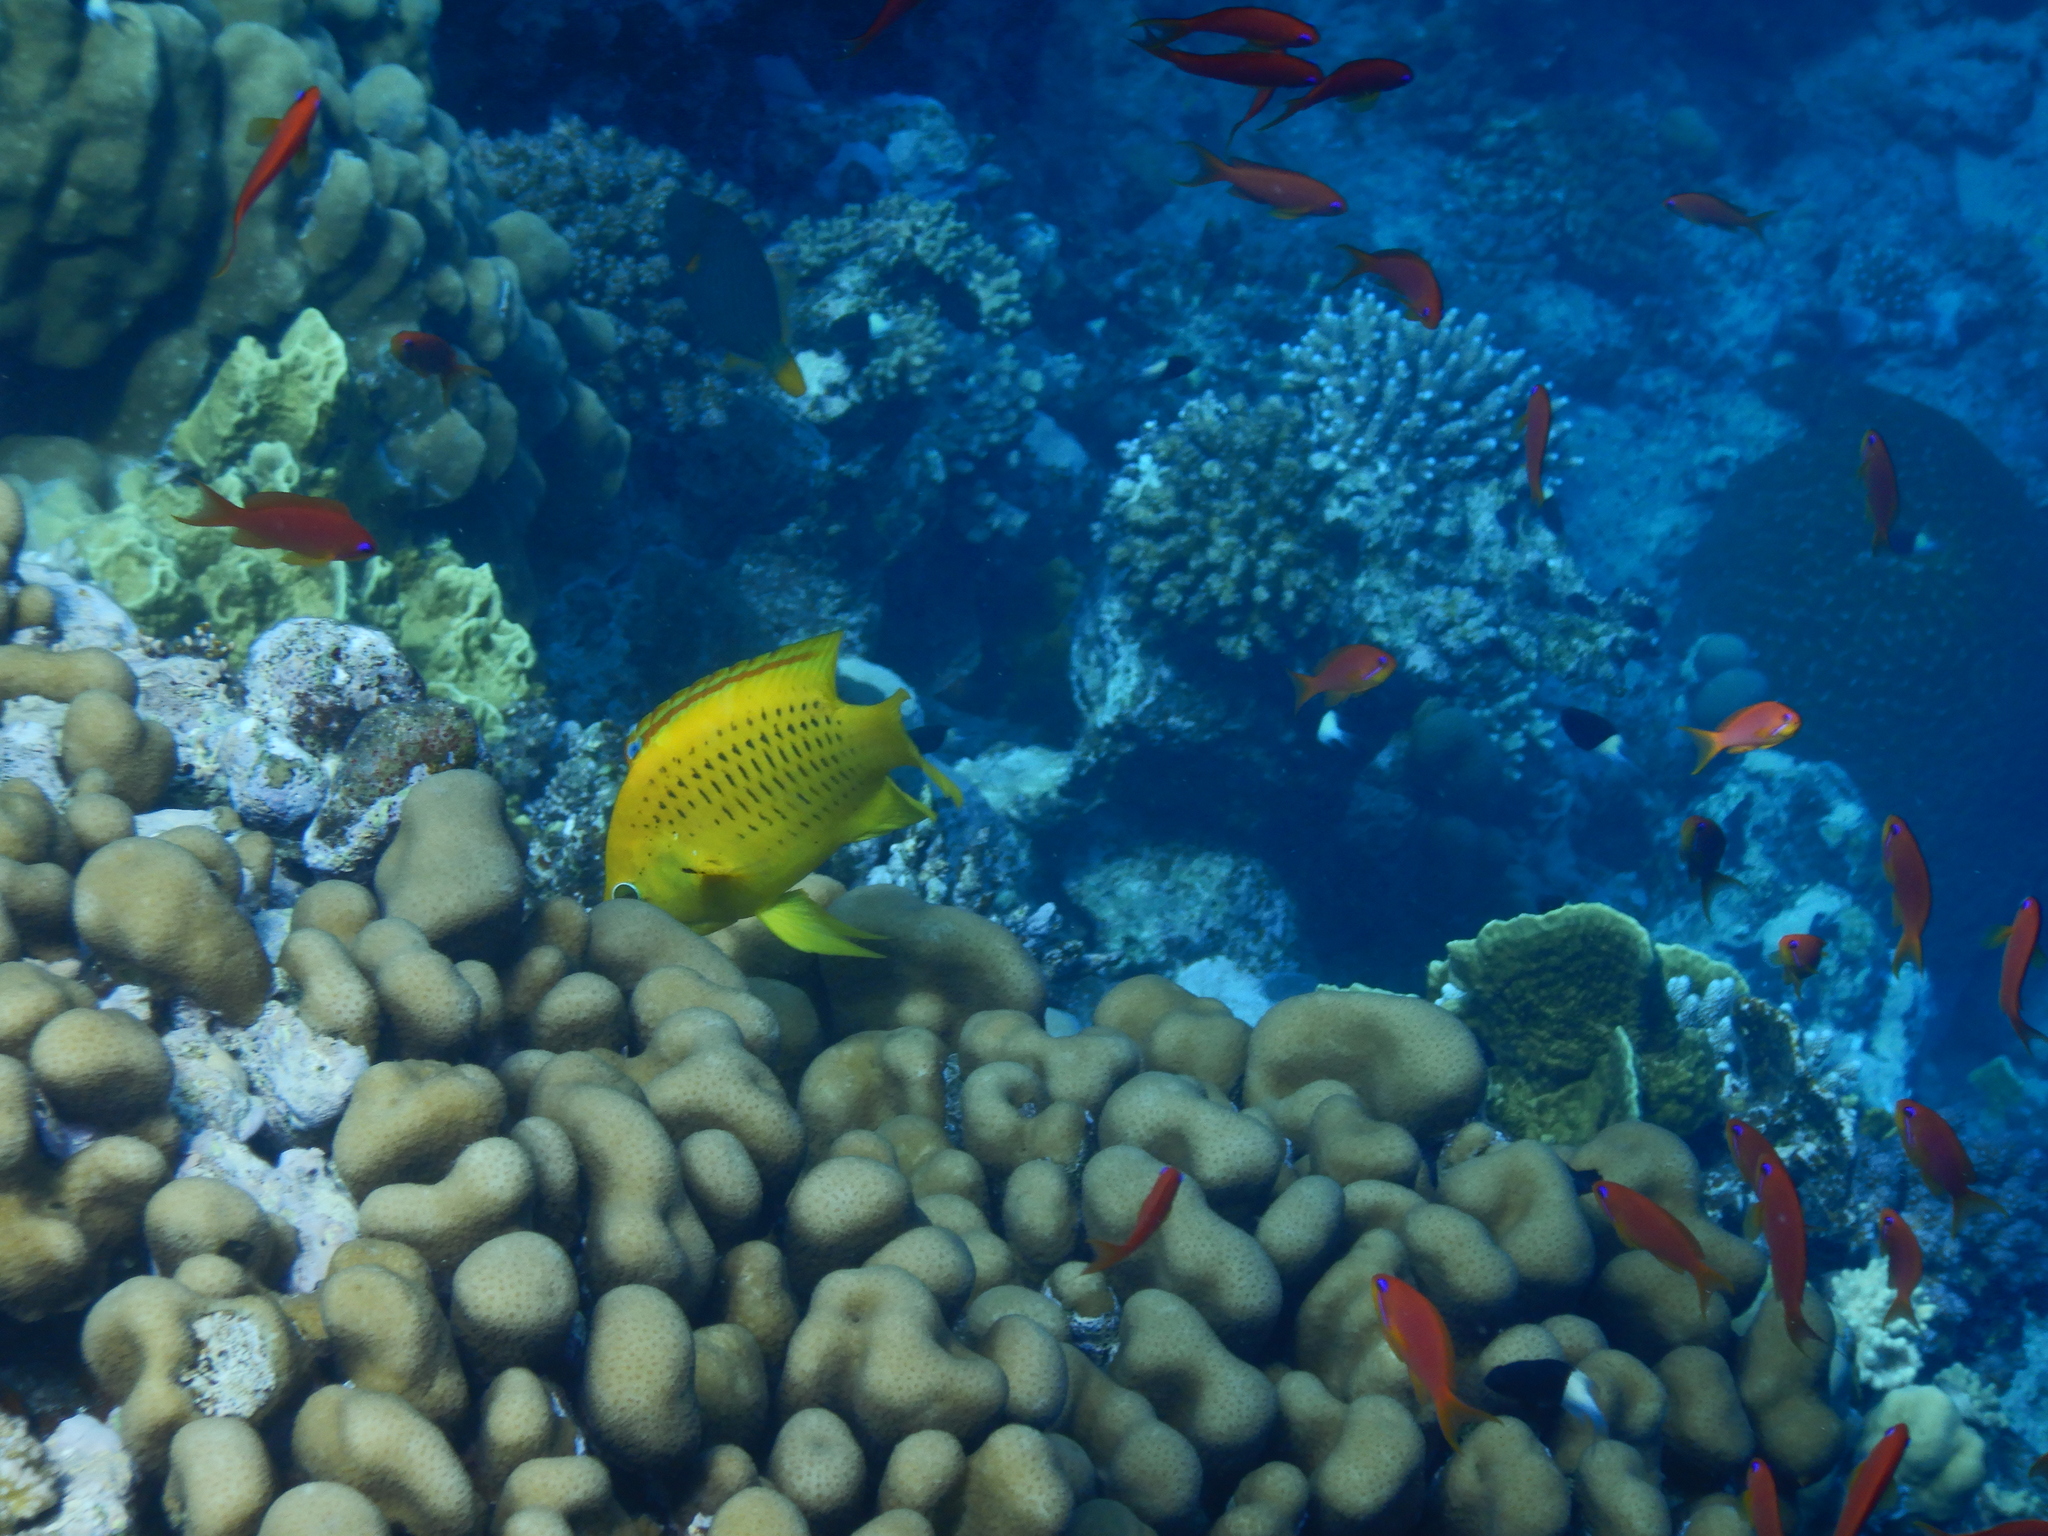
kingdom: Animalia
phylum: Chordata
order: Perciformes
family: Labridae
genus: Epibulus
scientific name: Epibulus insidiator
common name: Slingjaw wrasse
